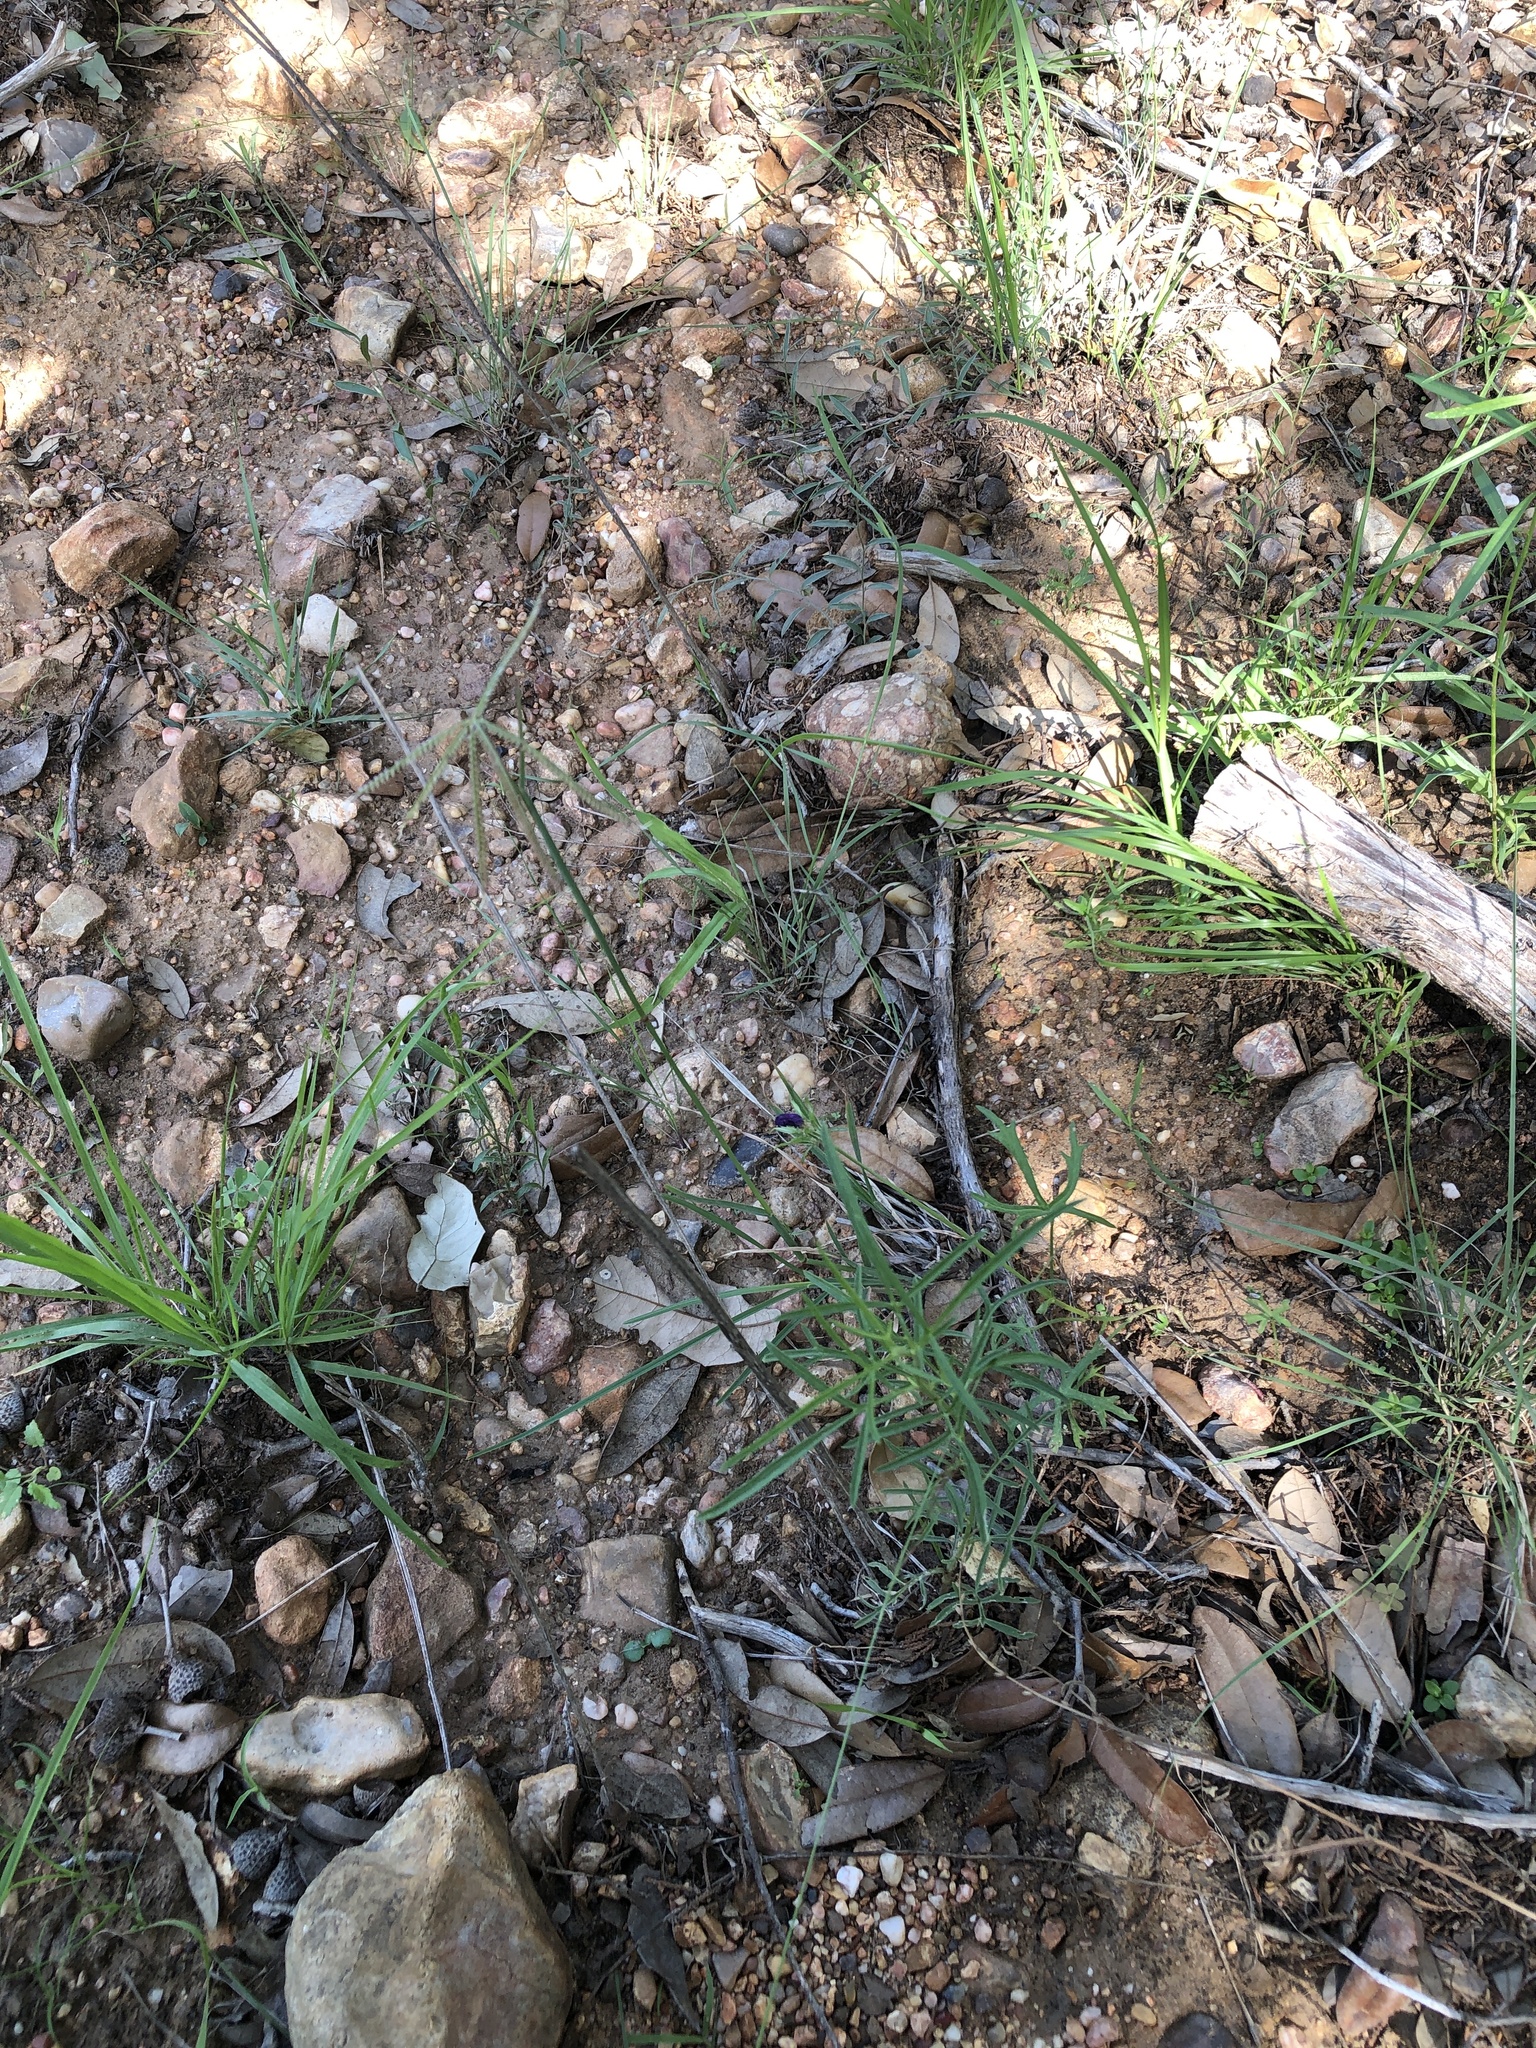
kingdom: Plantae
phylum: Tracheophyta
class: Liliopsida
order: Poales
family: Poaceae
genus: Chloris
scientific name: Chloris cucullata
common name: Hooded windmill grass
